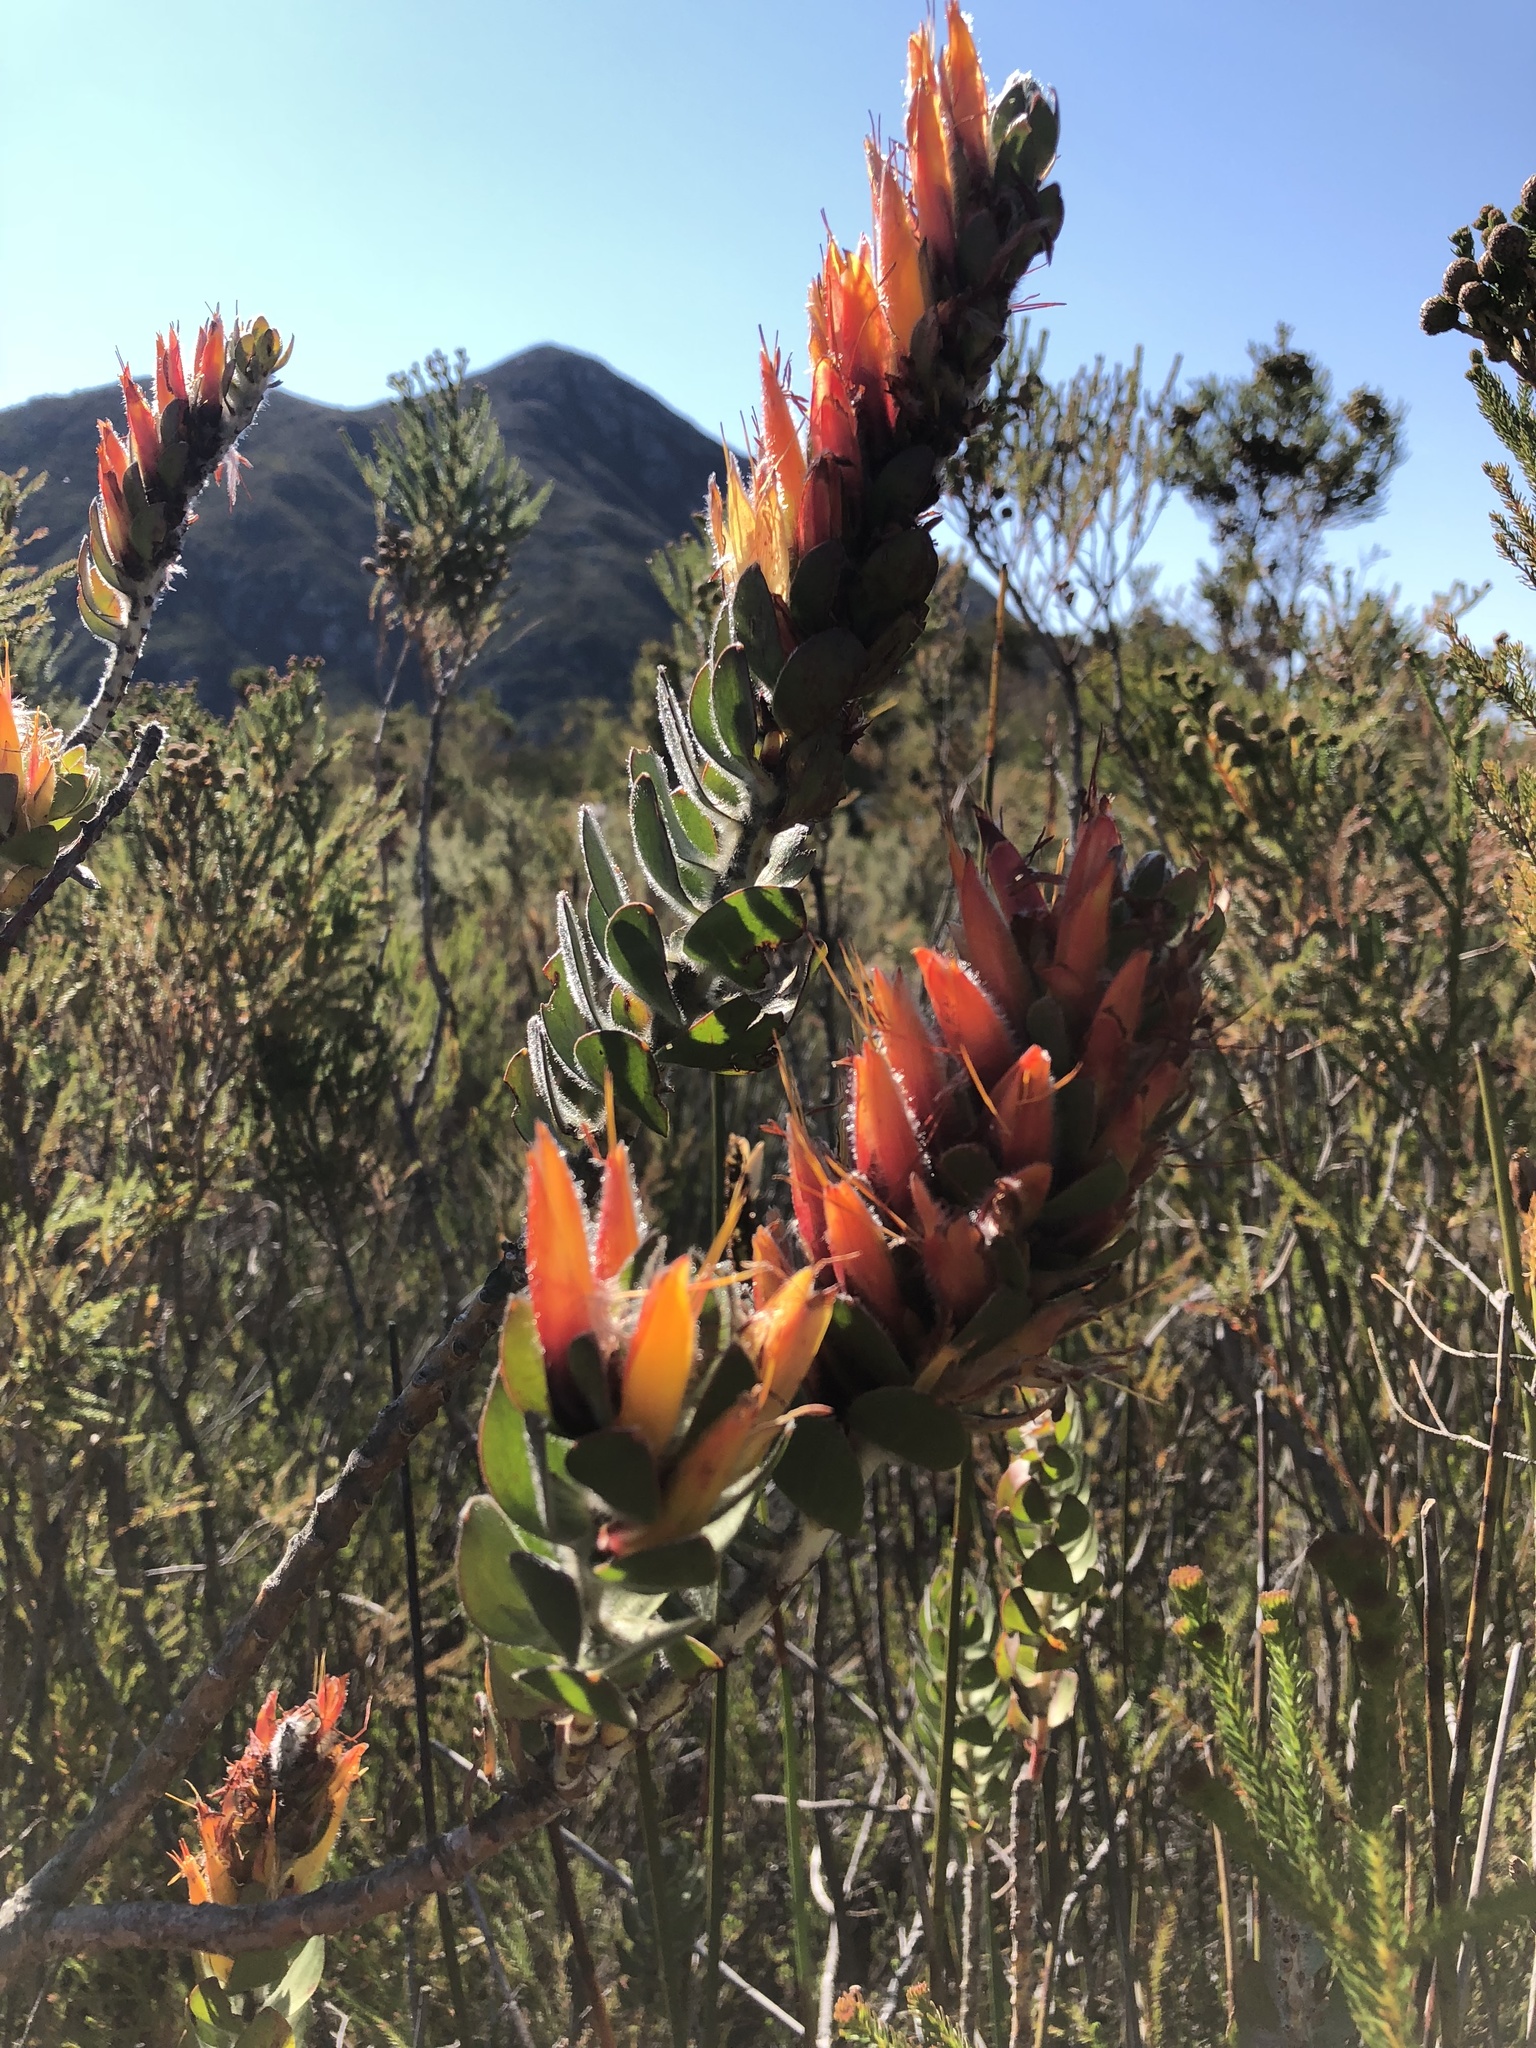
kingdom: Plantae
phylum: Tracheophyta
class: Magnoliopsida
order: Proteales
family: Proteaceae
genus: Mimetes
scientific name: Mimetes pauciflora
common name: Three-flowered pagoda
